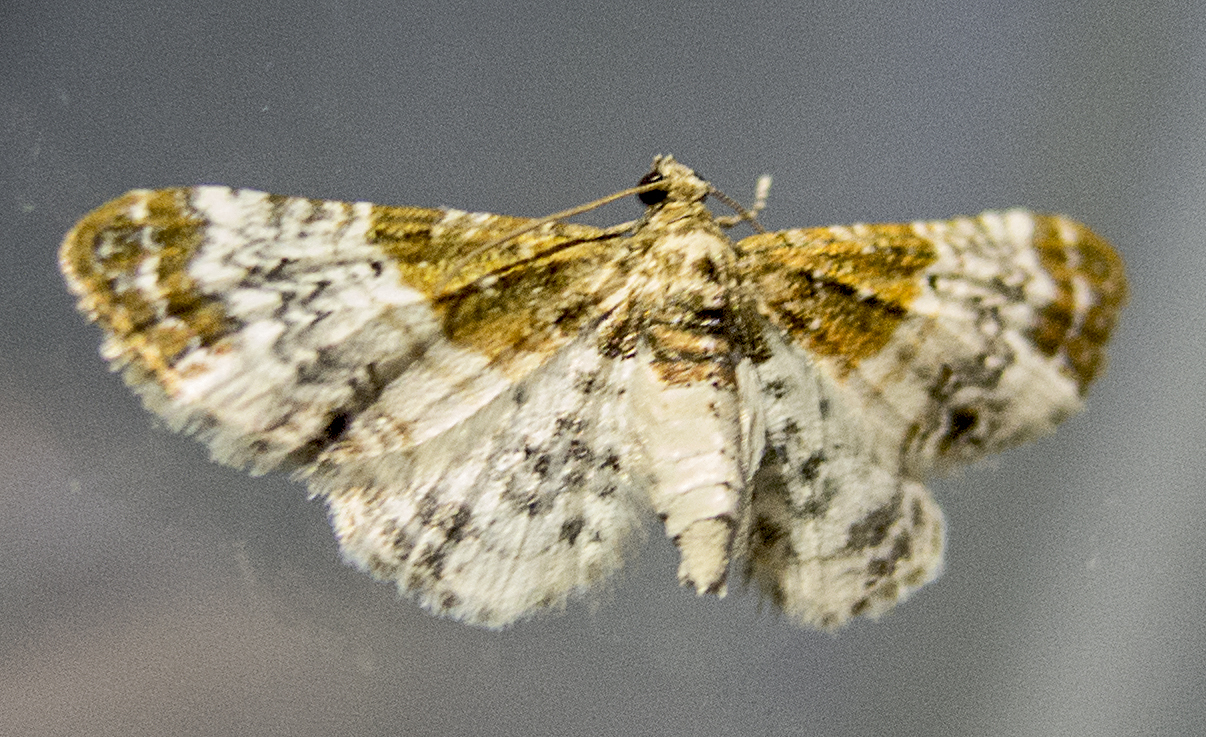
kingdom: Animalia
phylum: Arthropoda
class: Insecta
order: Lepidoptera
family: Geometridae
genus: Eupithecia
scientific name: Eupithecia breviculata
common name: Rusty-shouldered pug
